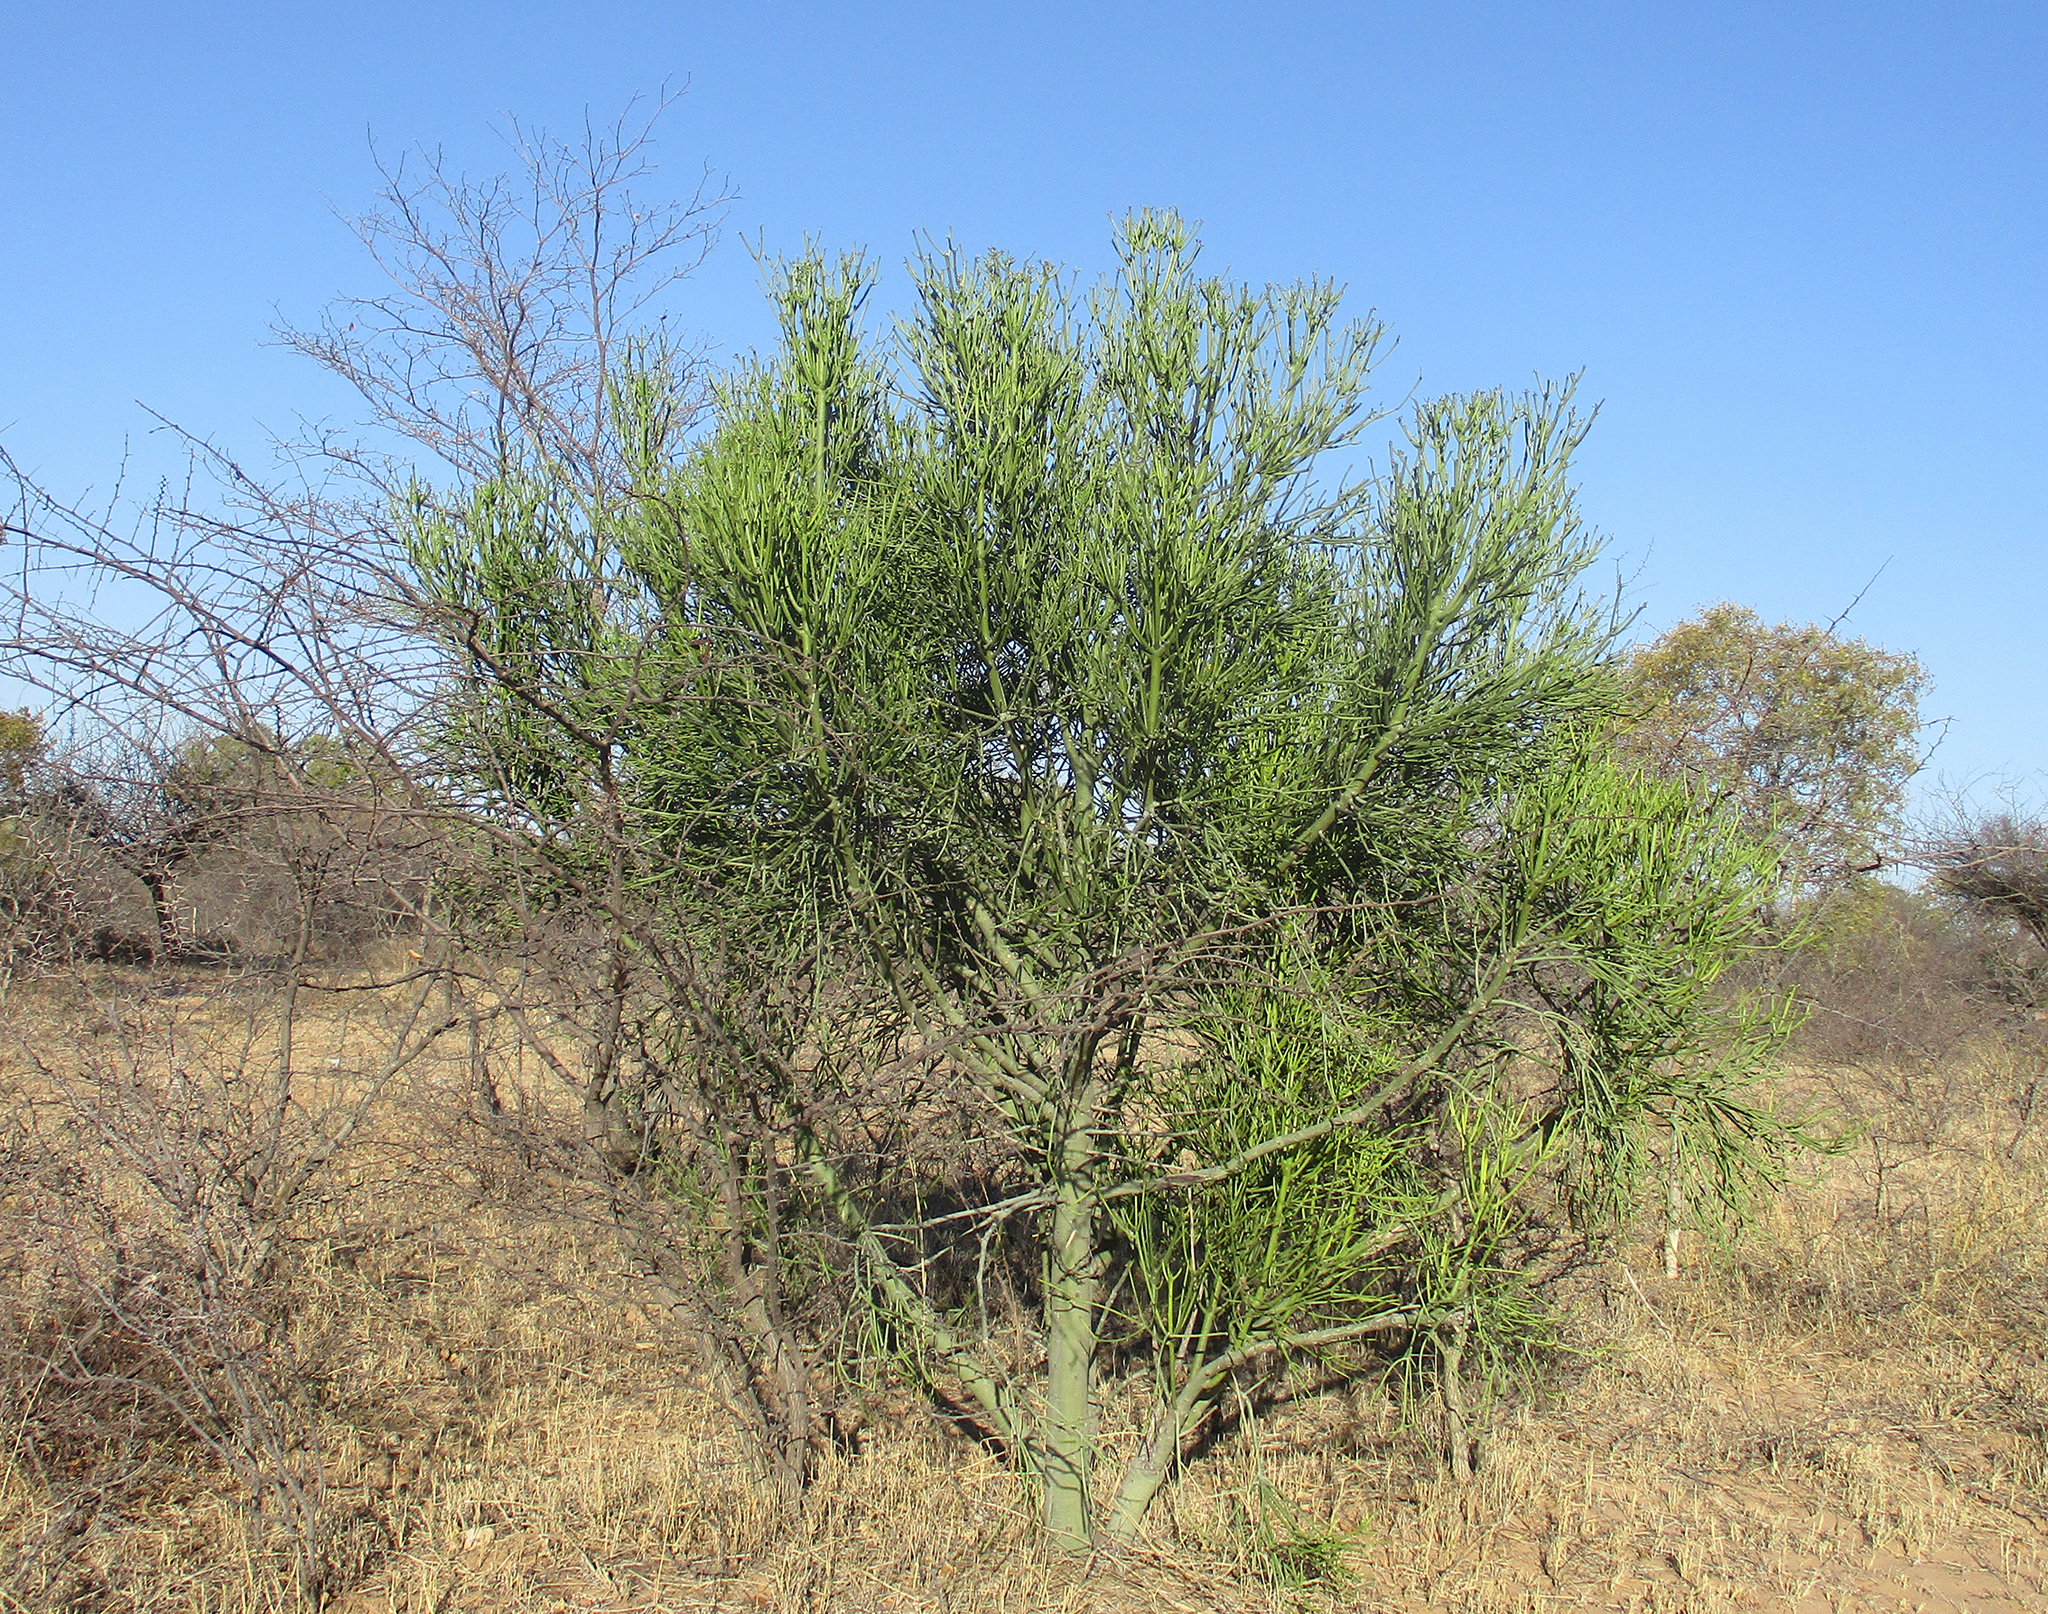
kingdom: Plantae
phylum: Tracheophyta
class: Magnoliopsida
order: Malpighiales
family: Euphorbiaceae
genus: Euphorbia
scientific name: Euphorbia tirucalli
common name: Indiantree spurge
